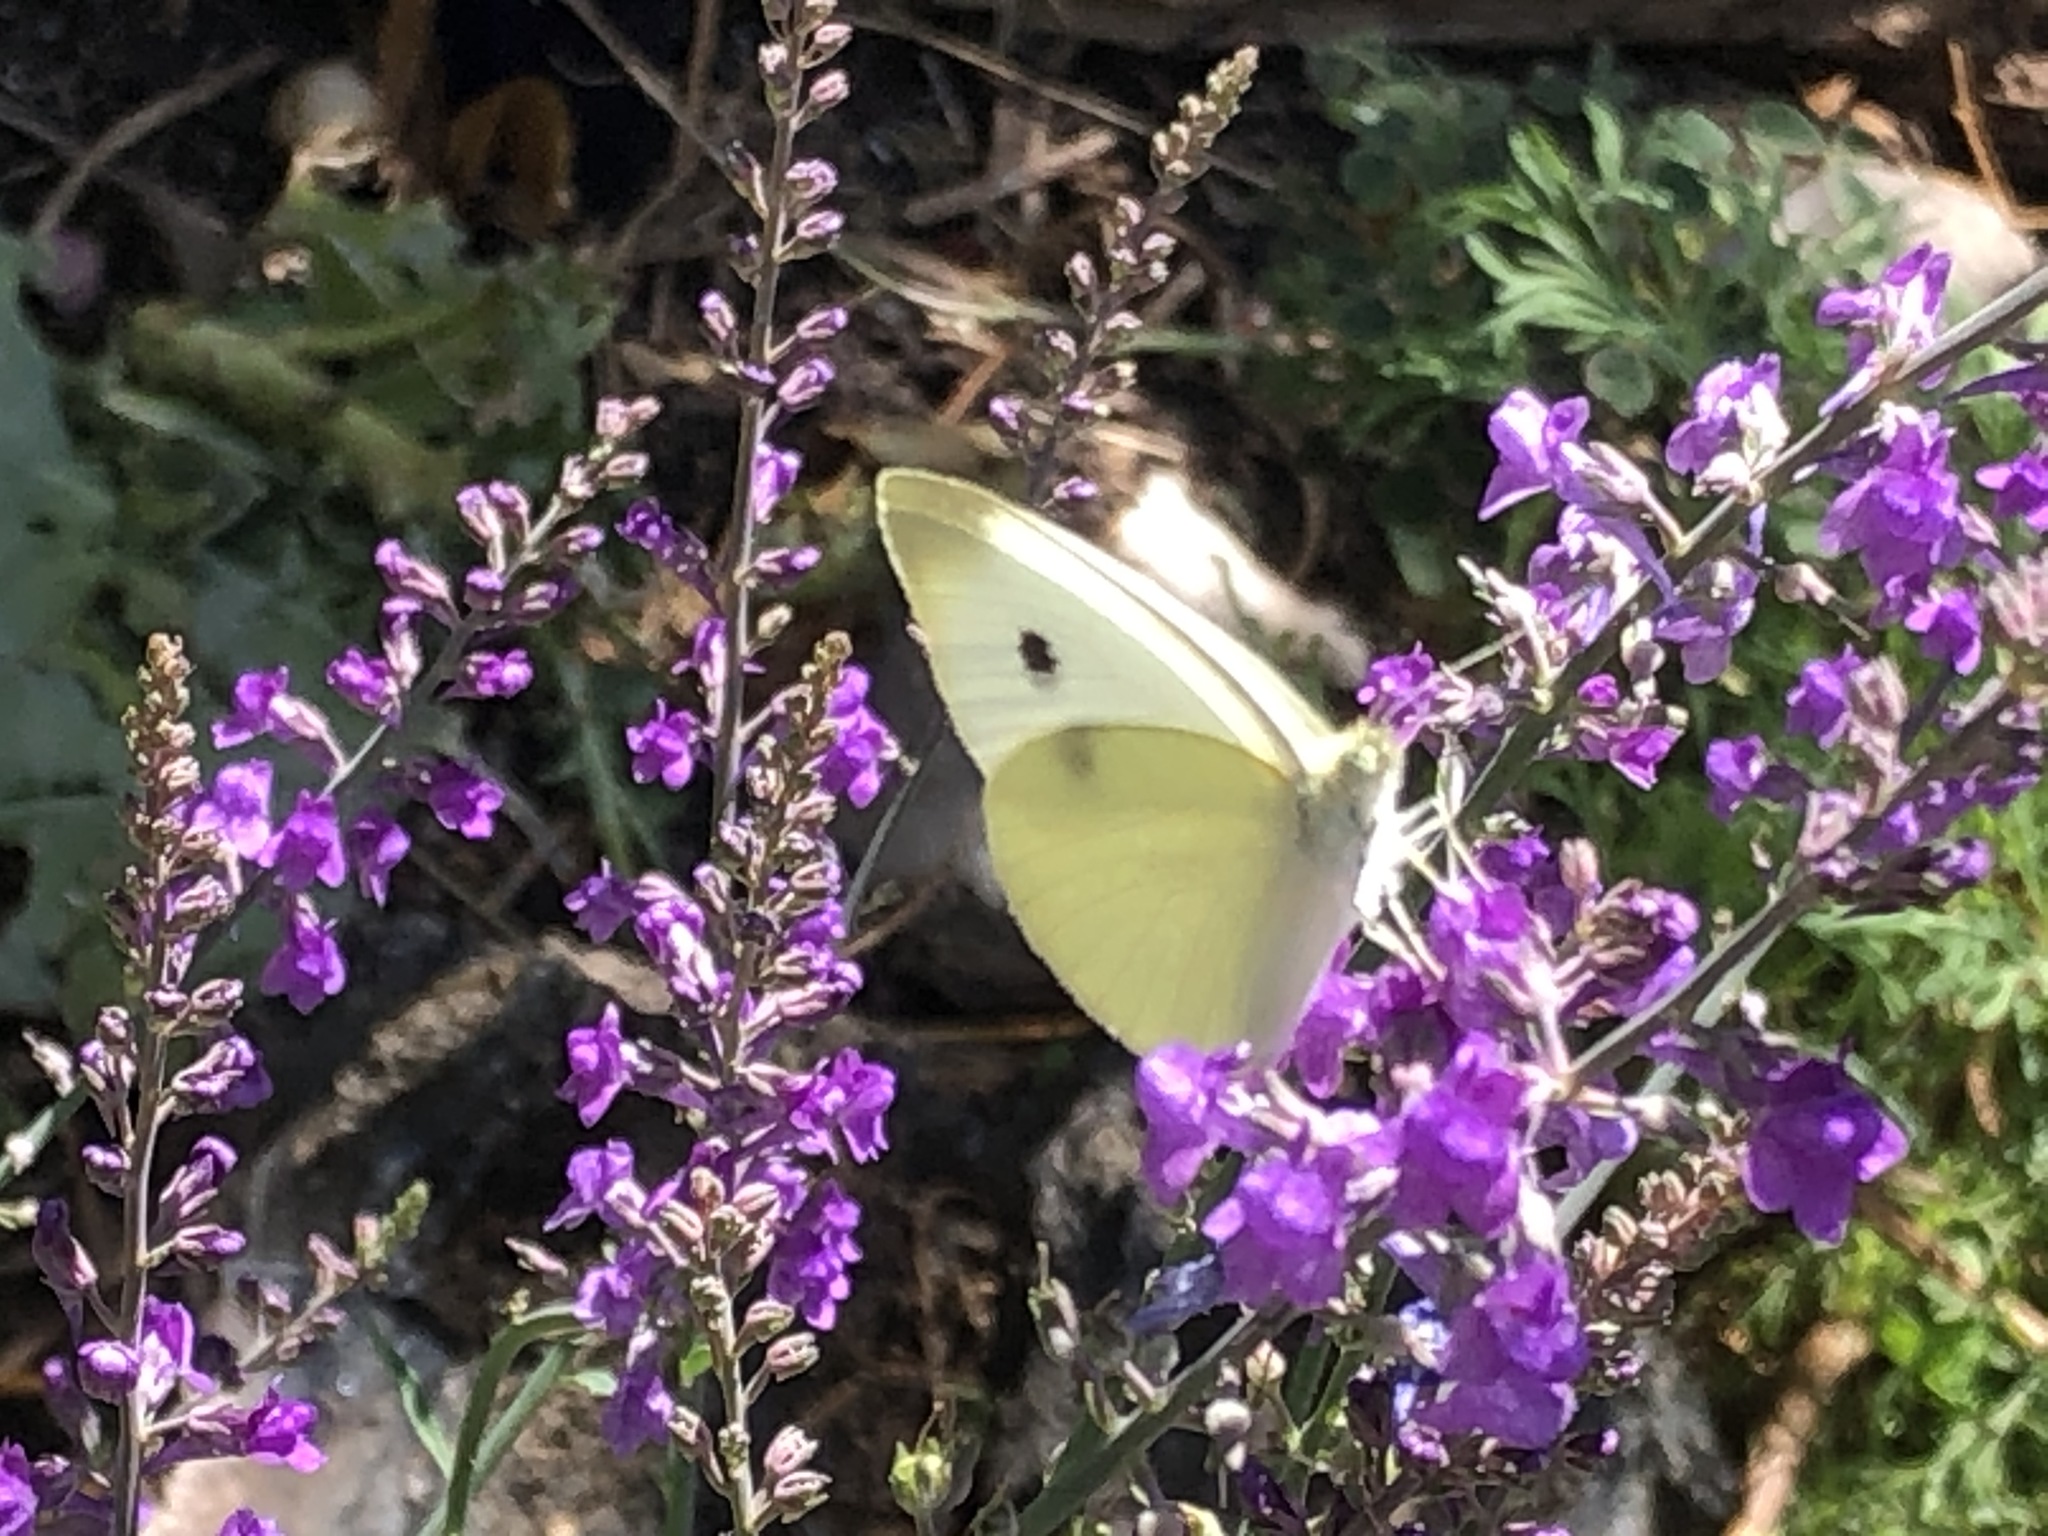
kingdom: Animalia
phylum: Arthropoda
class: Insecta
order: Lepidoptera
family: Pieridae
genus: Pieris
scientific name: Pieris rapae
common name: Small white
